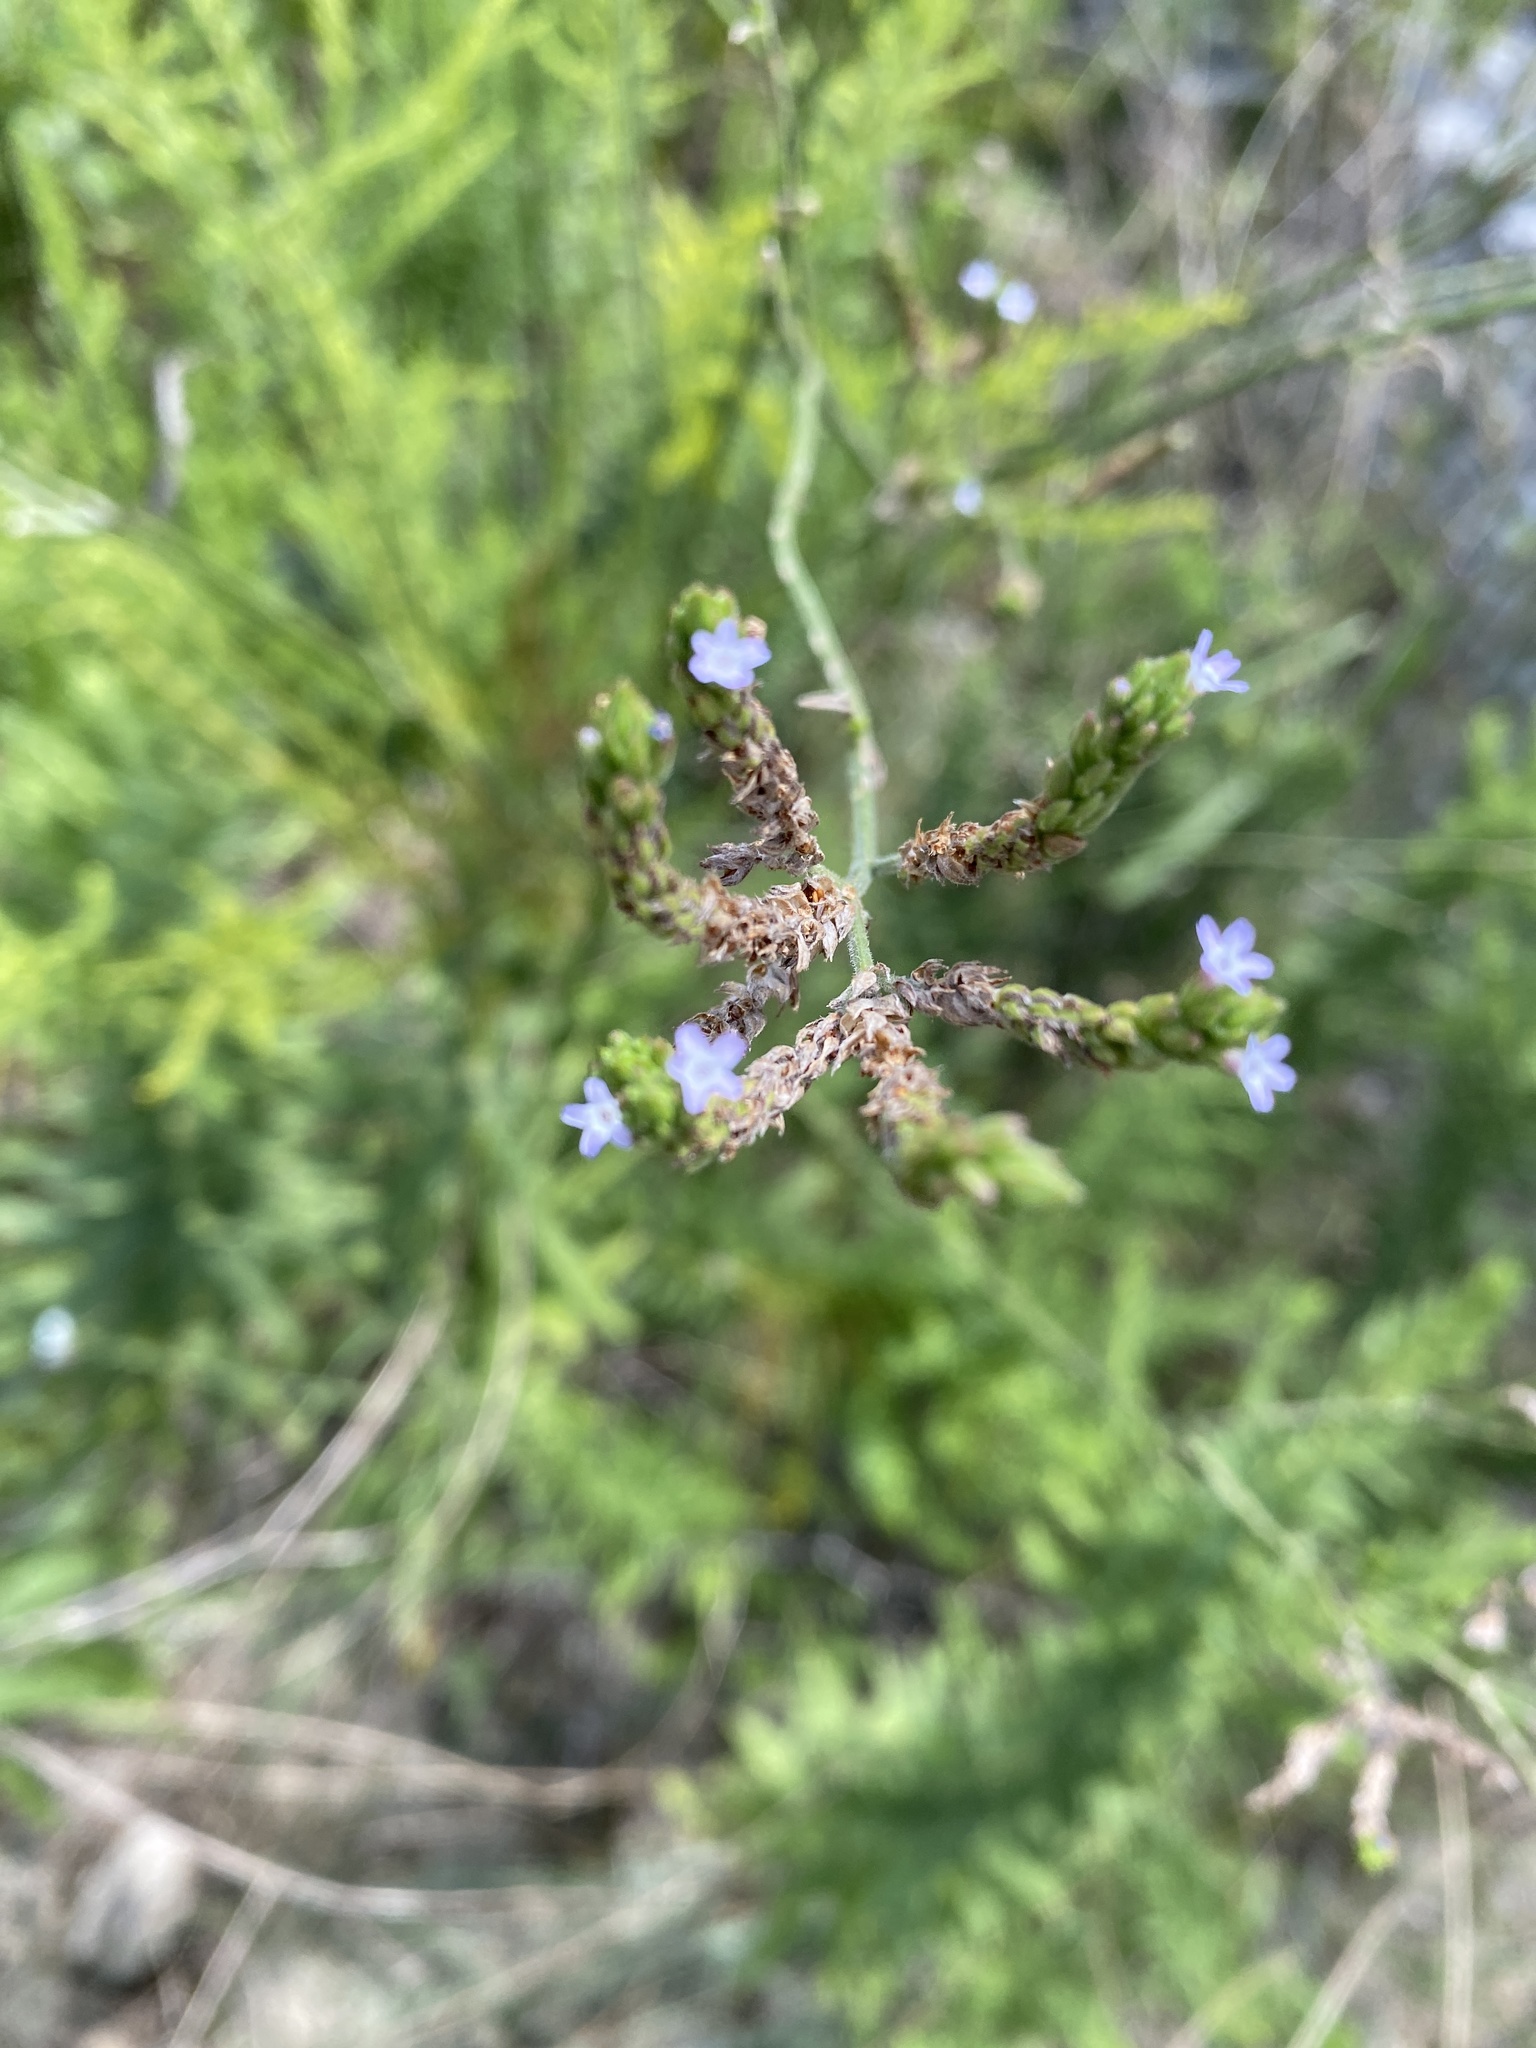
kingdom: Plantae
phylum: Tracheophyta
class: Magnoliopsida
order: Lamiales
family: Verbenaceae
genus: Verbena
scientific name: Verbena brasiliensis
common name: Brazilian vervain
